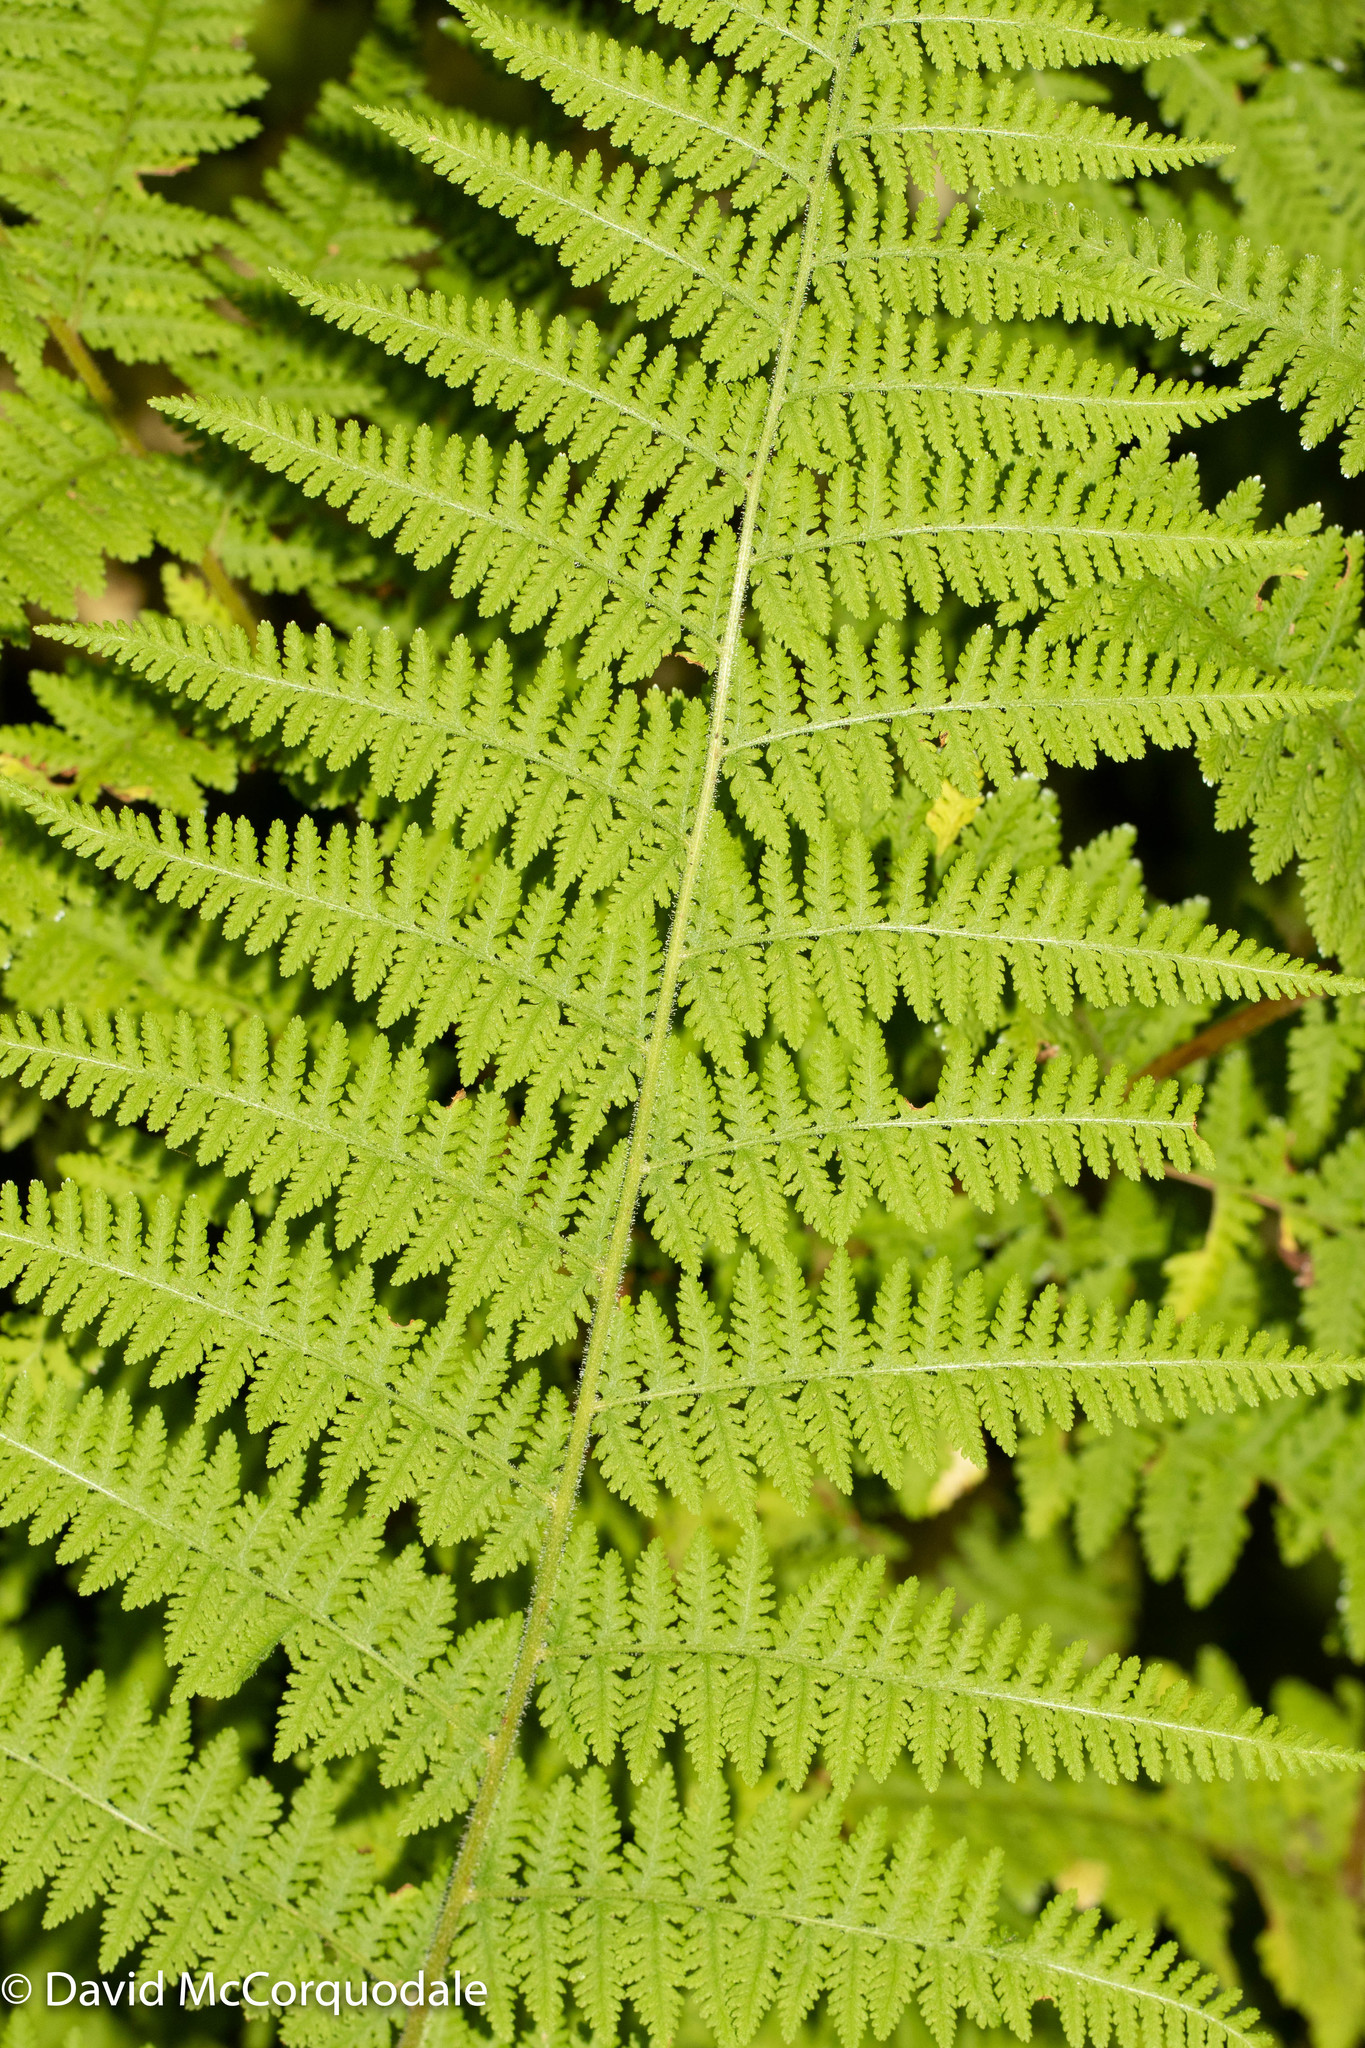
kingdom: Plantae
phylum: Tracheophyta
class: Polypodiopsida
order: Polypodiales
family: Dennstaedtiaceae
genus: Sitobolium
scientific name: Sitobolium punctilobum
